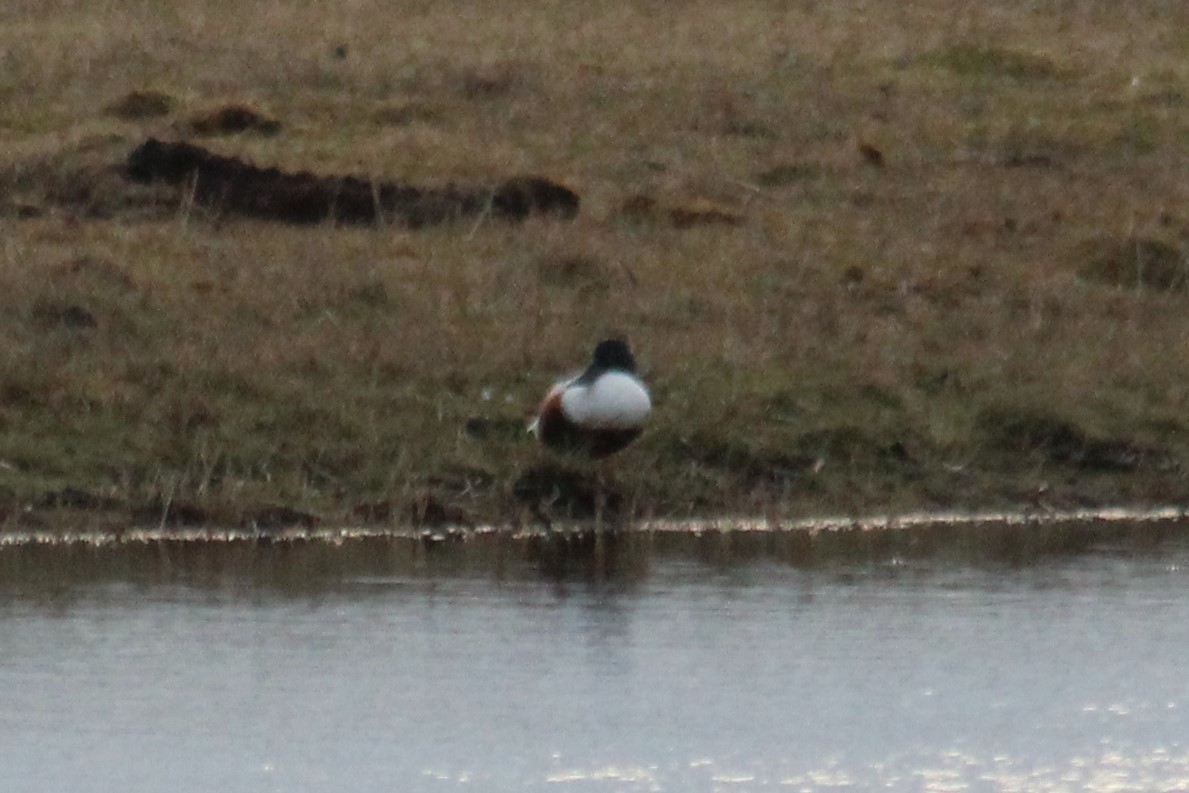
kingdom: Animalia
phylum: Chordata
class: Aves
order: Anseriformes
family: Anatidae
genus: Spatula
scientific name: Spatula clypeata
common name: Northern shoveler
